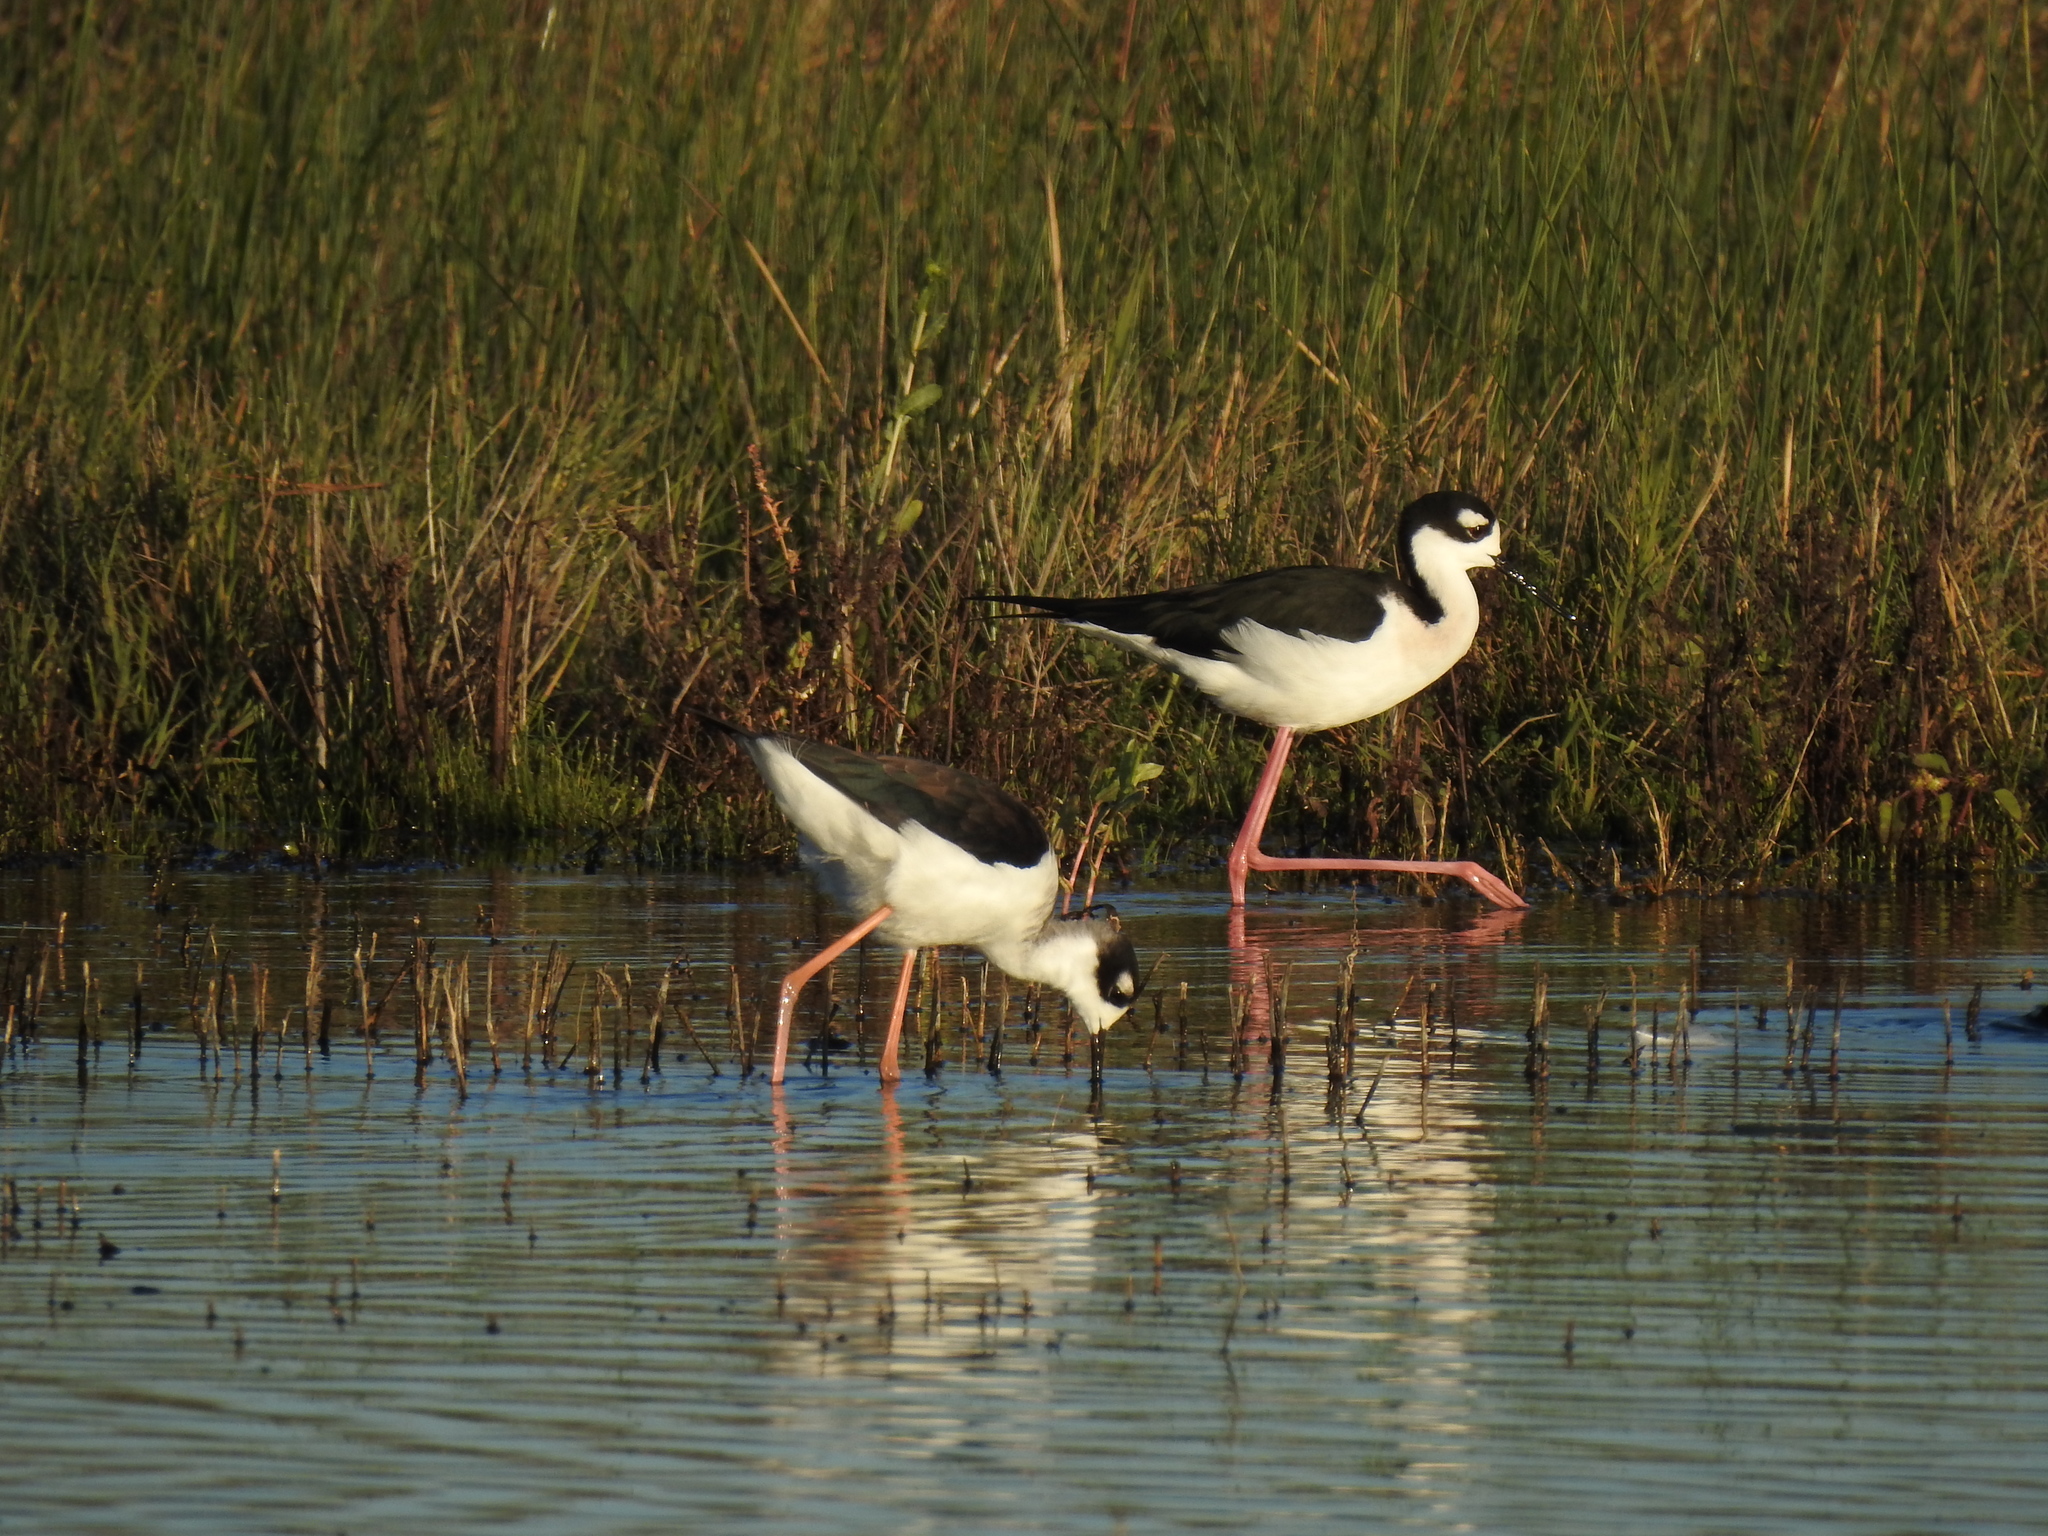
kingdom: Animalia
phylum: Chordata
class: Aves
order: Charadriiformes
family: Recurvirostridae
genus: Himantopus
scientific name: Himantopus mexicanus
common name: Black-necked stilt
